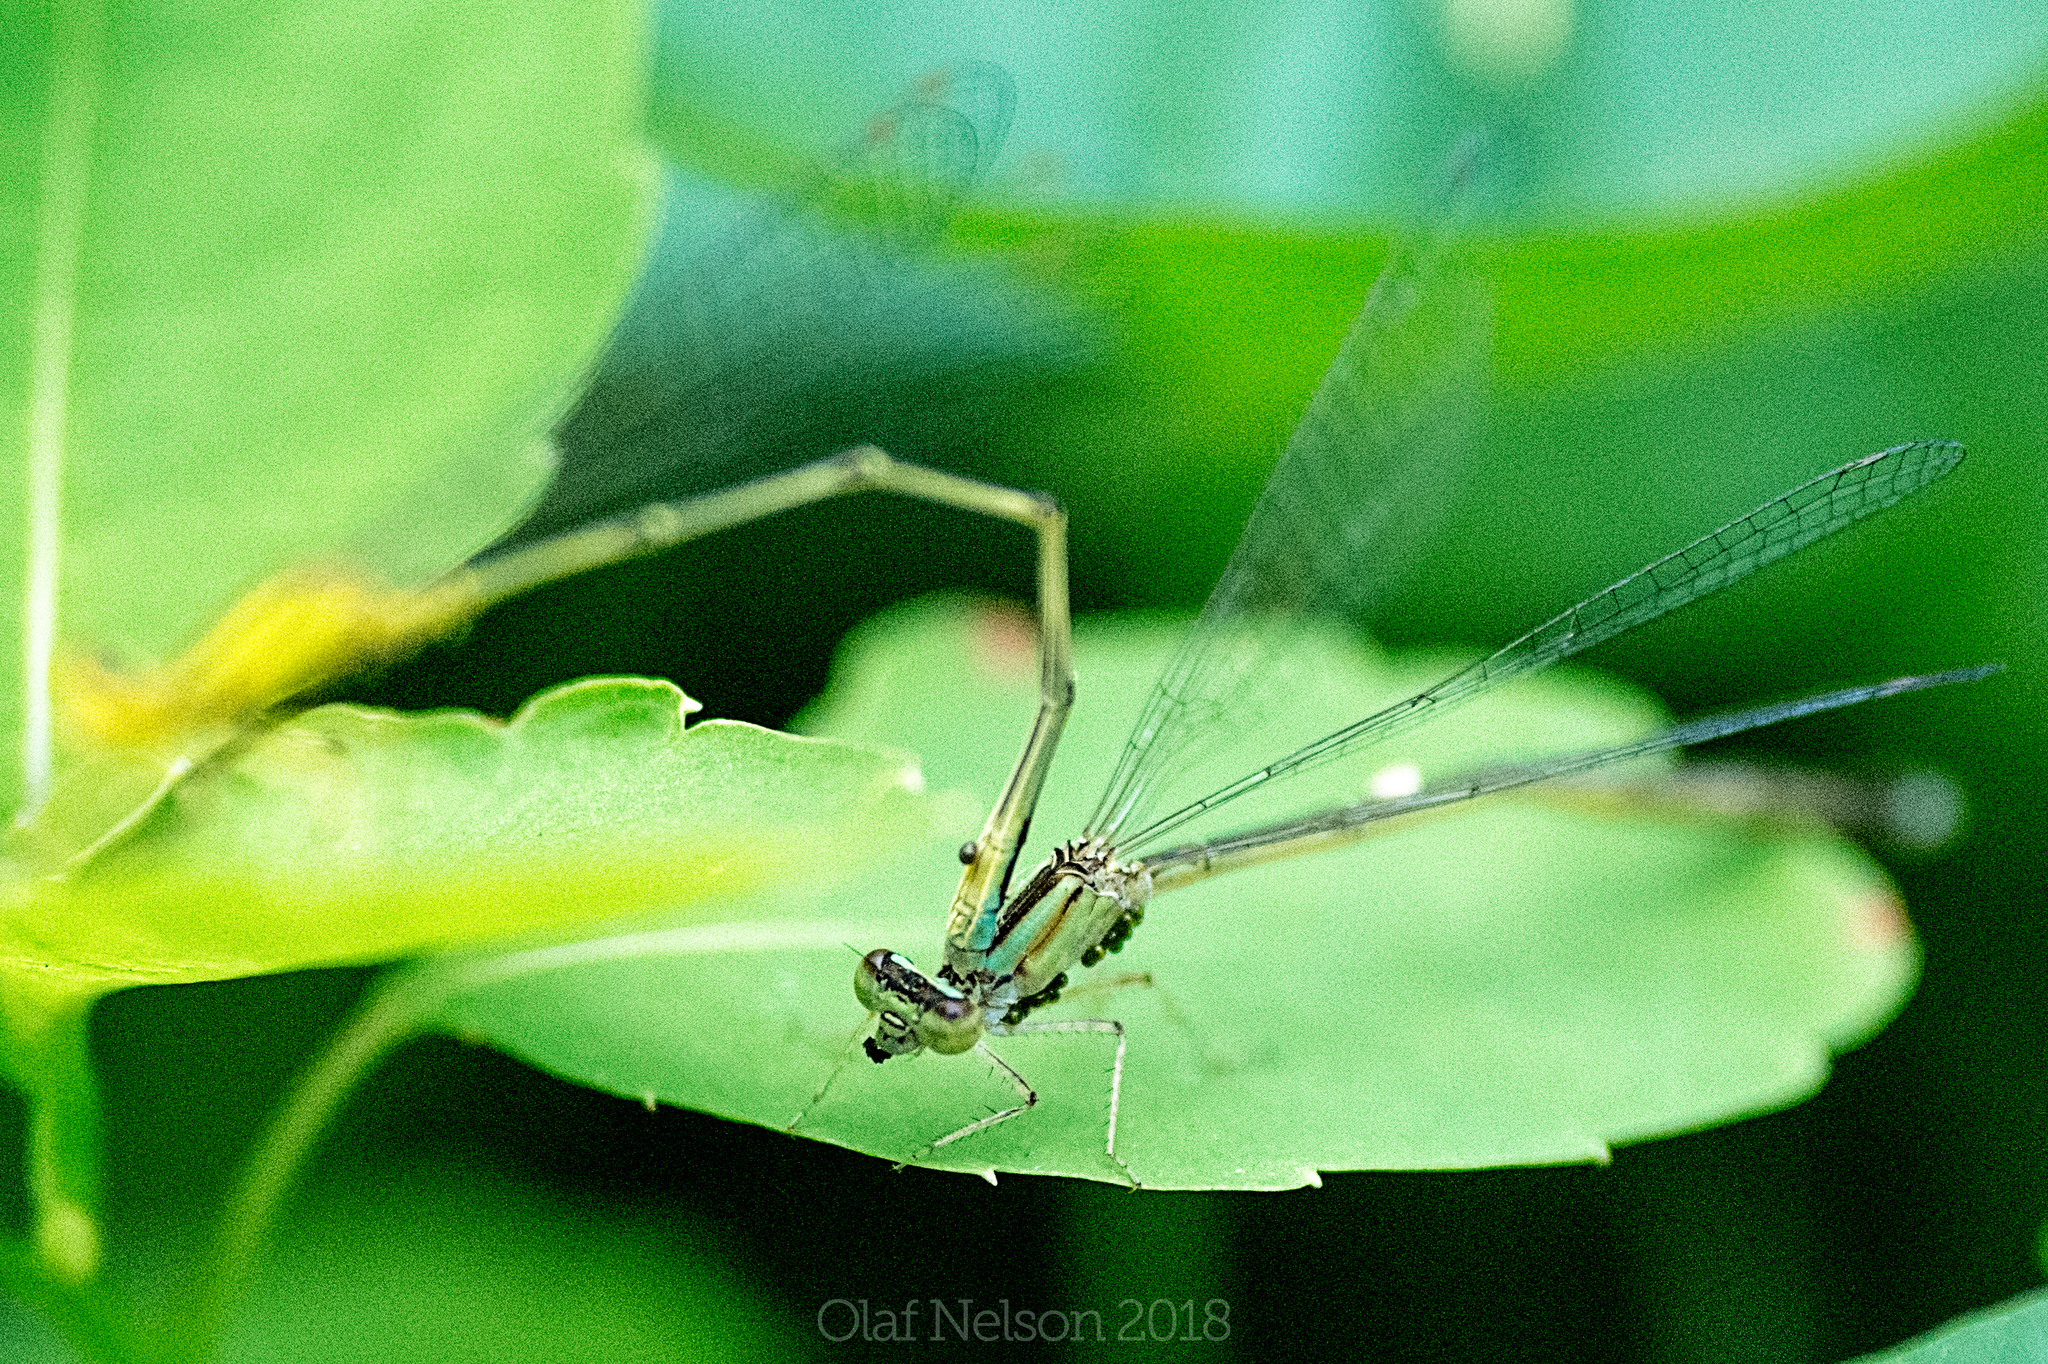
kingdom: Animalia
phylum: Arthropoda
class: Insecta
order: Odonata
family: Coenagrionidae
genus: Enallagma
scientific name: Enallagma vesperum
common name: Vesper bluet
